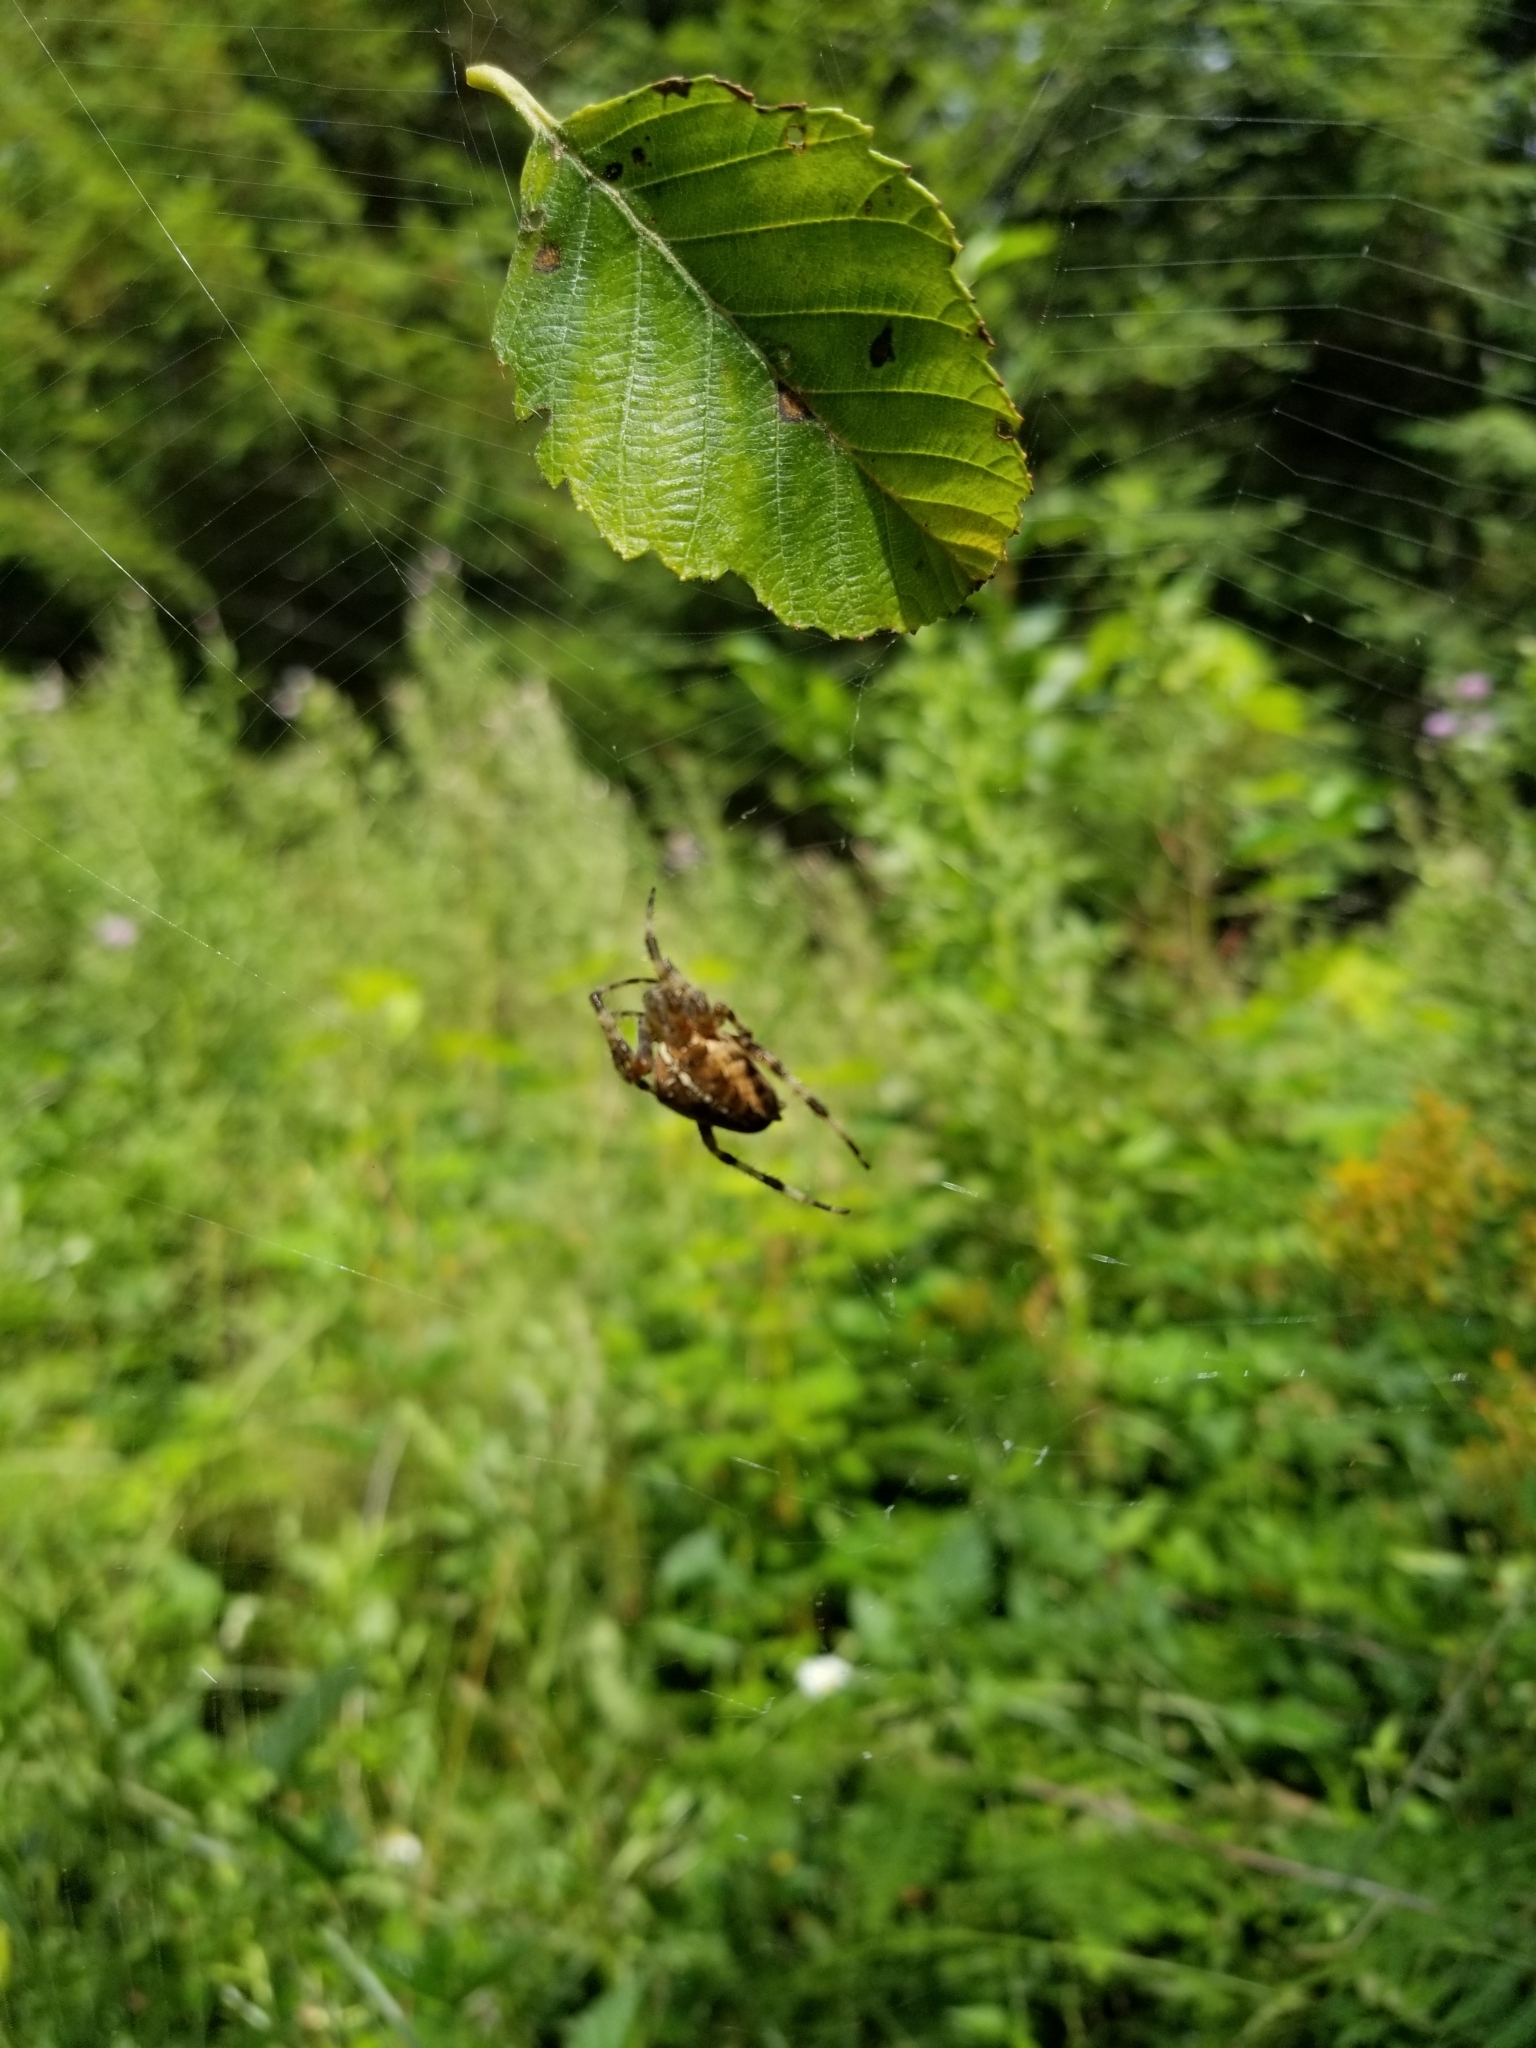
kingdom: Animalia
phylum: Arthropoda
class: Arachnida
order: Araneae
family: Araneidae
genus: Araneus
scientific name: Araneus diadematus
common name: Cross orbweaver
